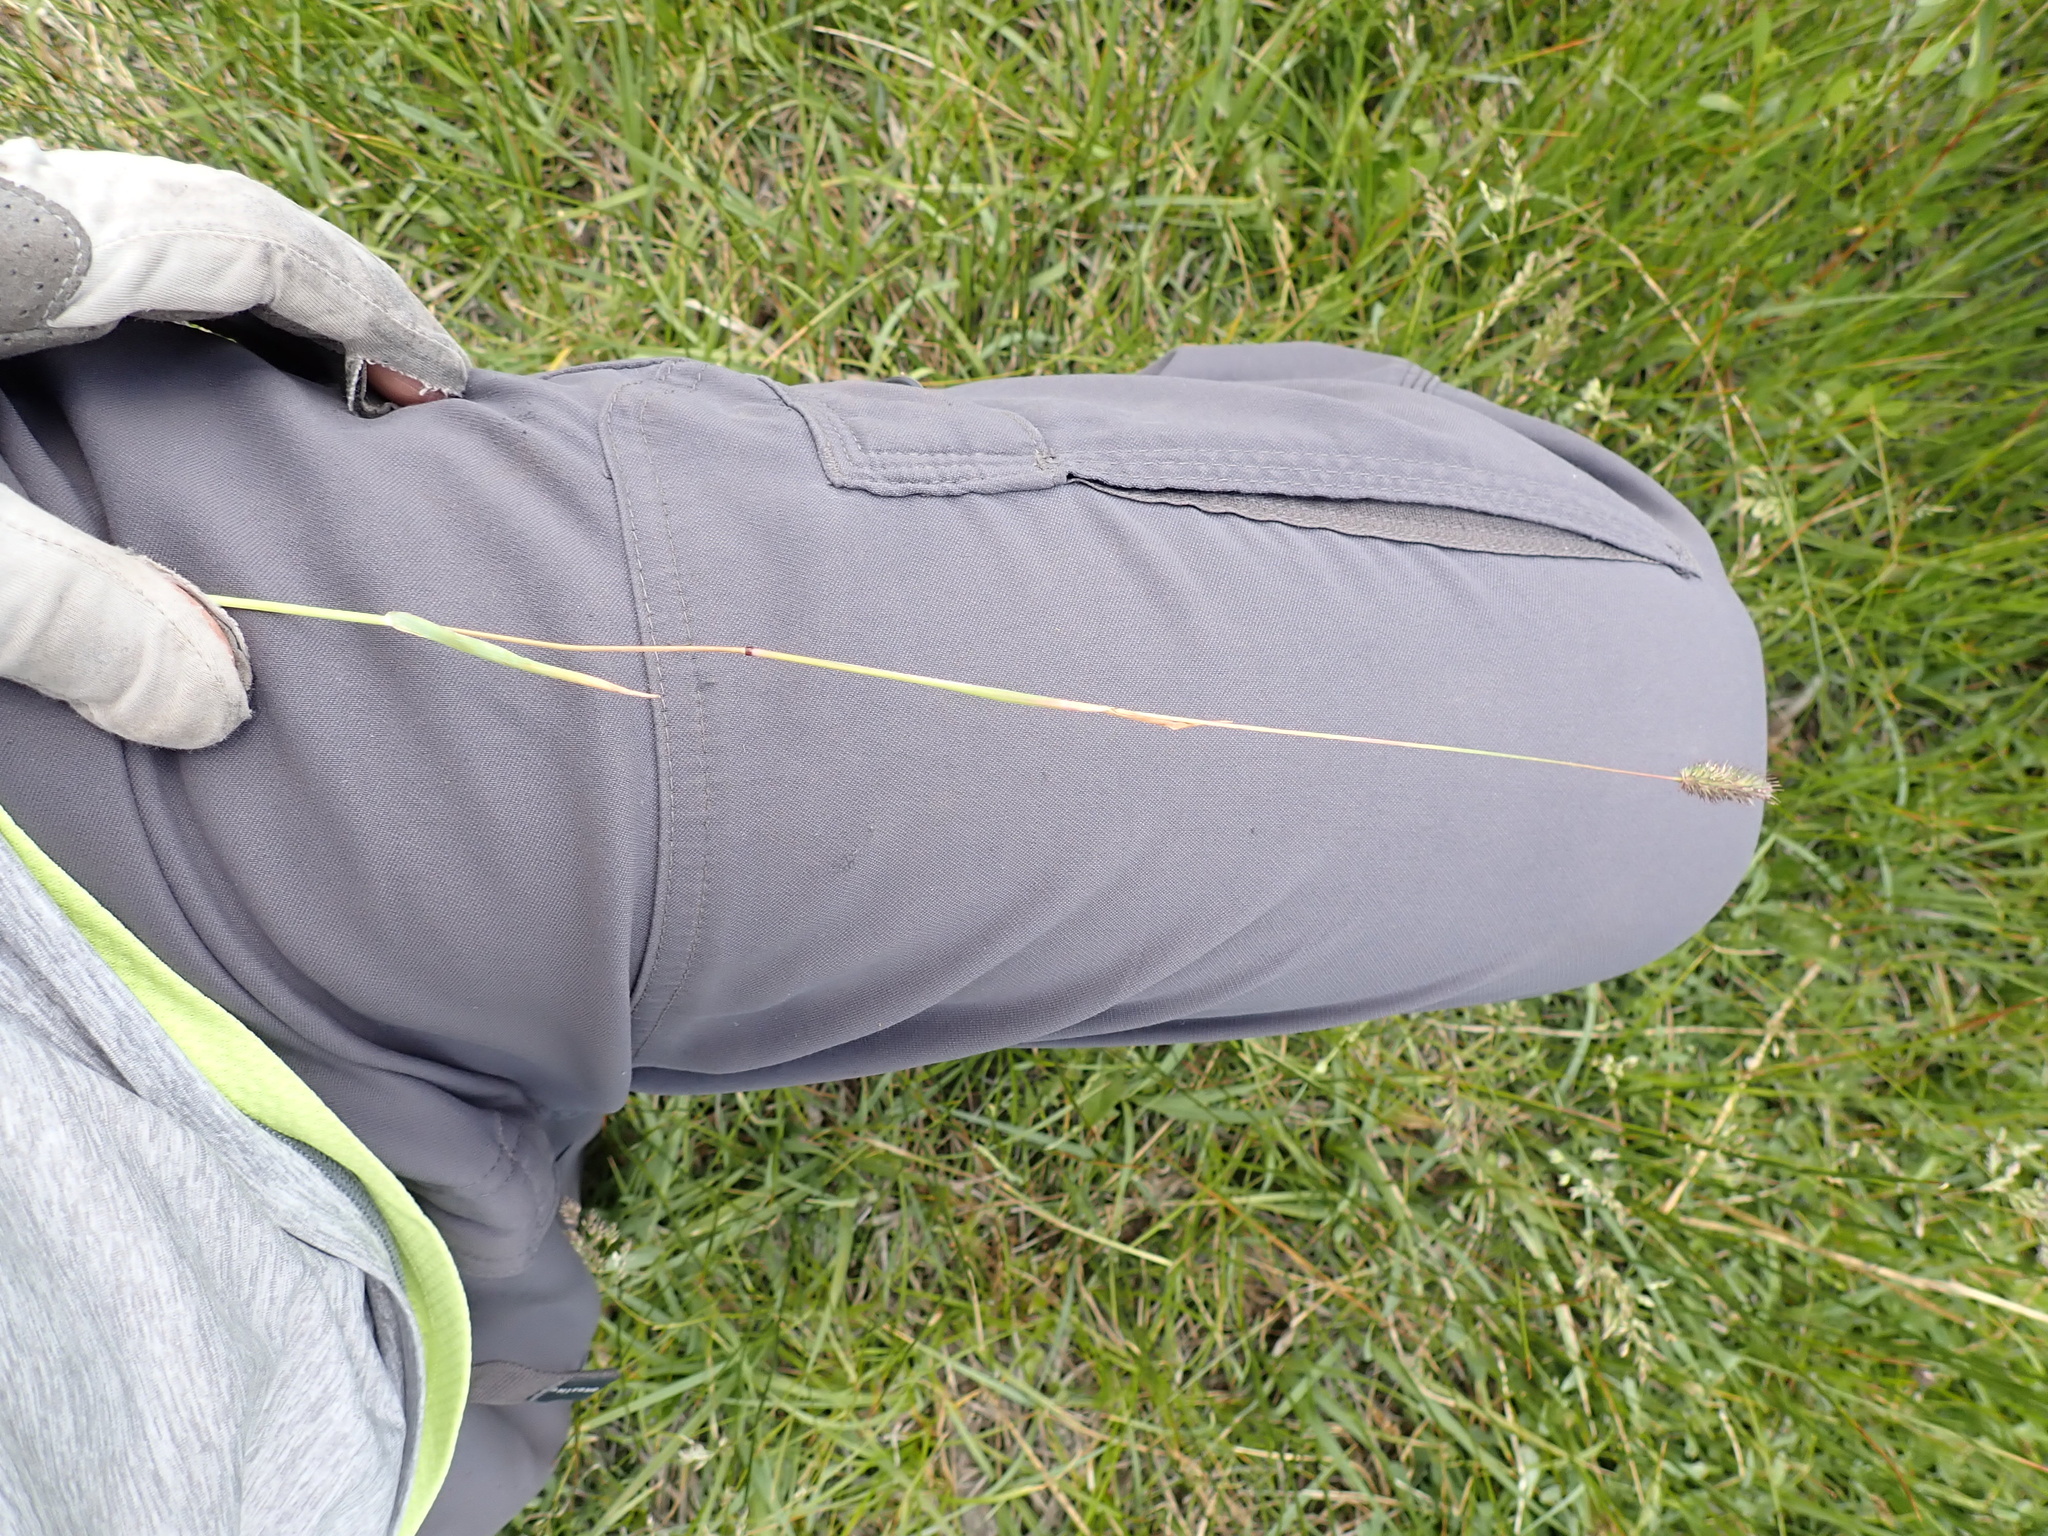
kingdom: Plantae
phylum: Tracheophyta
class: Liliopsida
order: Poales
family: Poaceae
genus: Phleum
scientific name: Phleum alpinum
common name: Alpine cat's-tail
